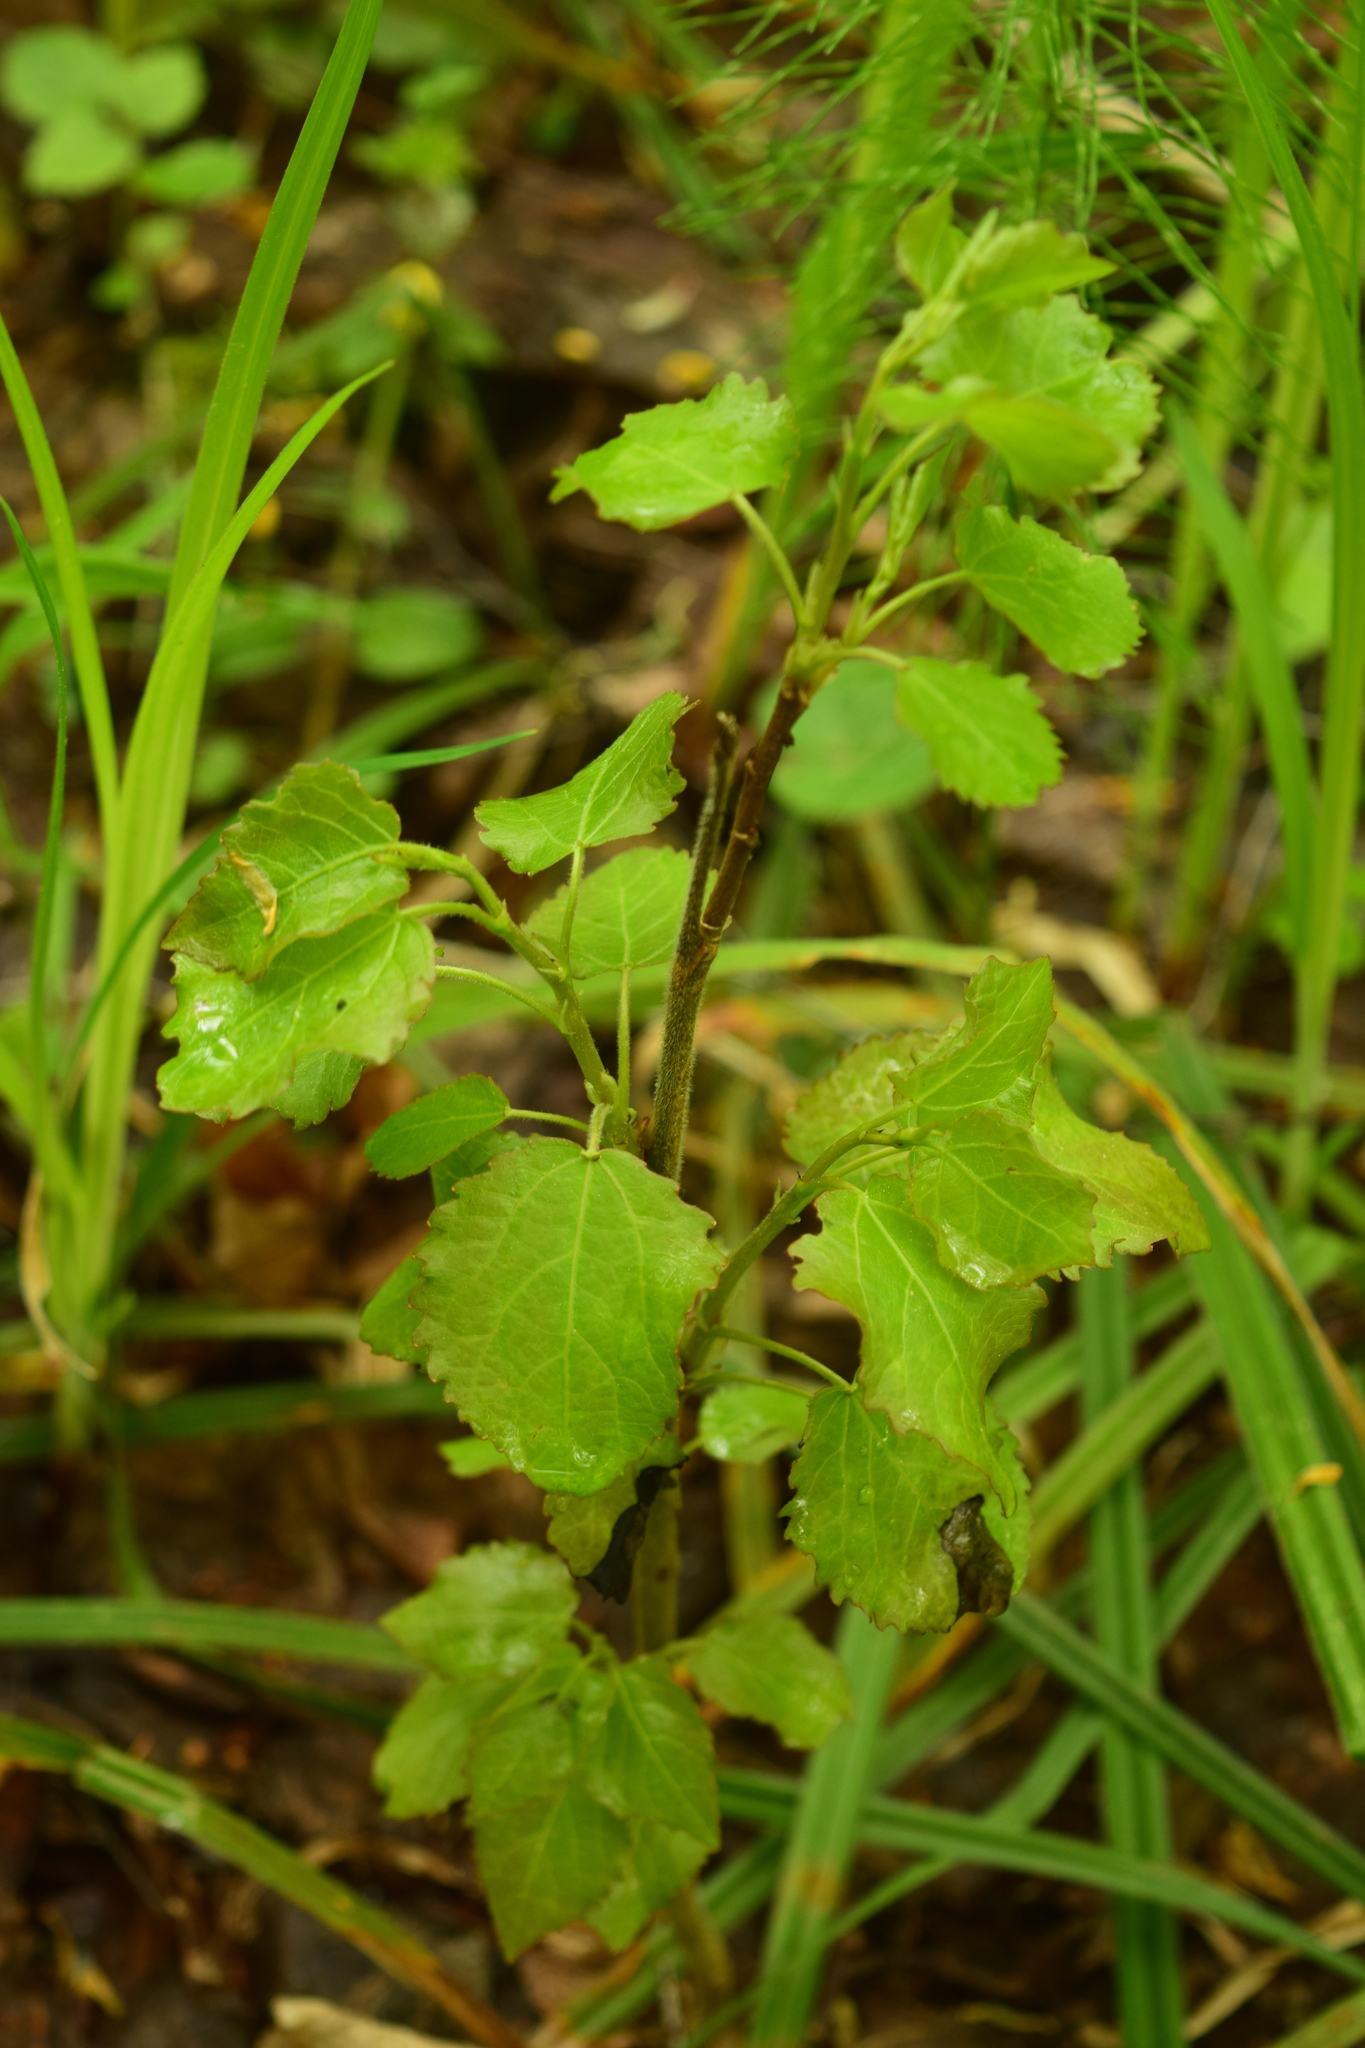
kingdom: Plantae
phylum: Tracheophyta
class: Magnoliopsida
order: Malpighiales
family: Salicaceae
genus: Populus
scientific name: Populus tremula
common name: European aspen
